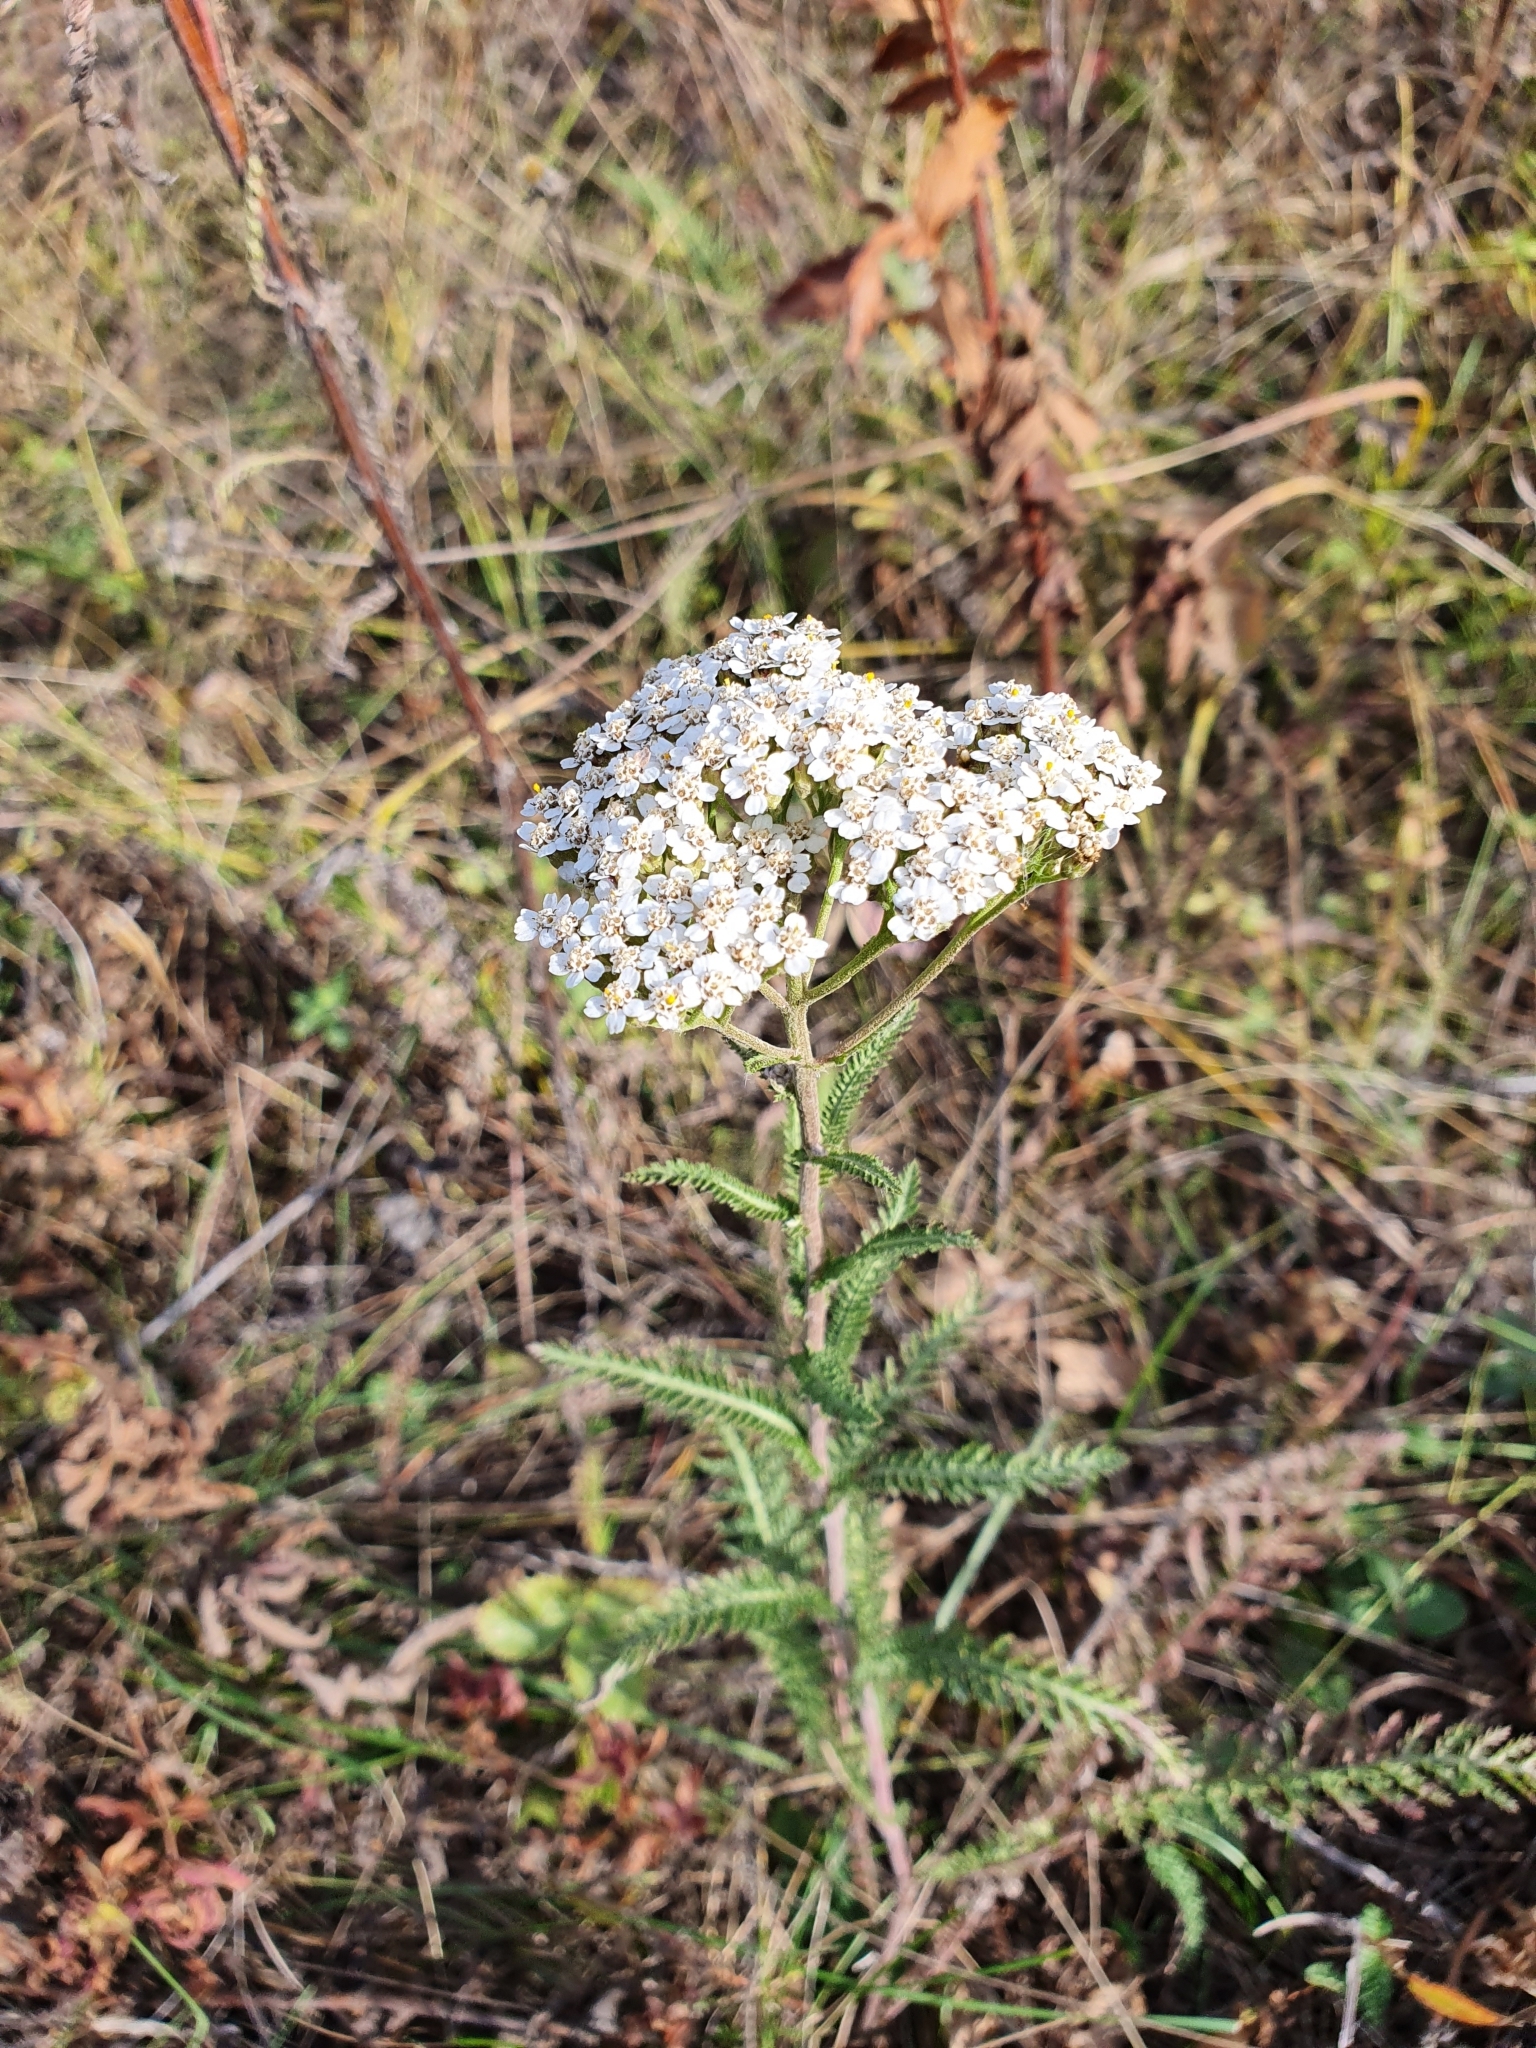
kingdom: Plantae
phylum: Tracheophyta
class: Magnoliopsida
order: Asterales
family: Asteraceae
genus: Achillea
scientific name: Achillea millefolium
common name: Yarrow
